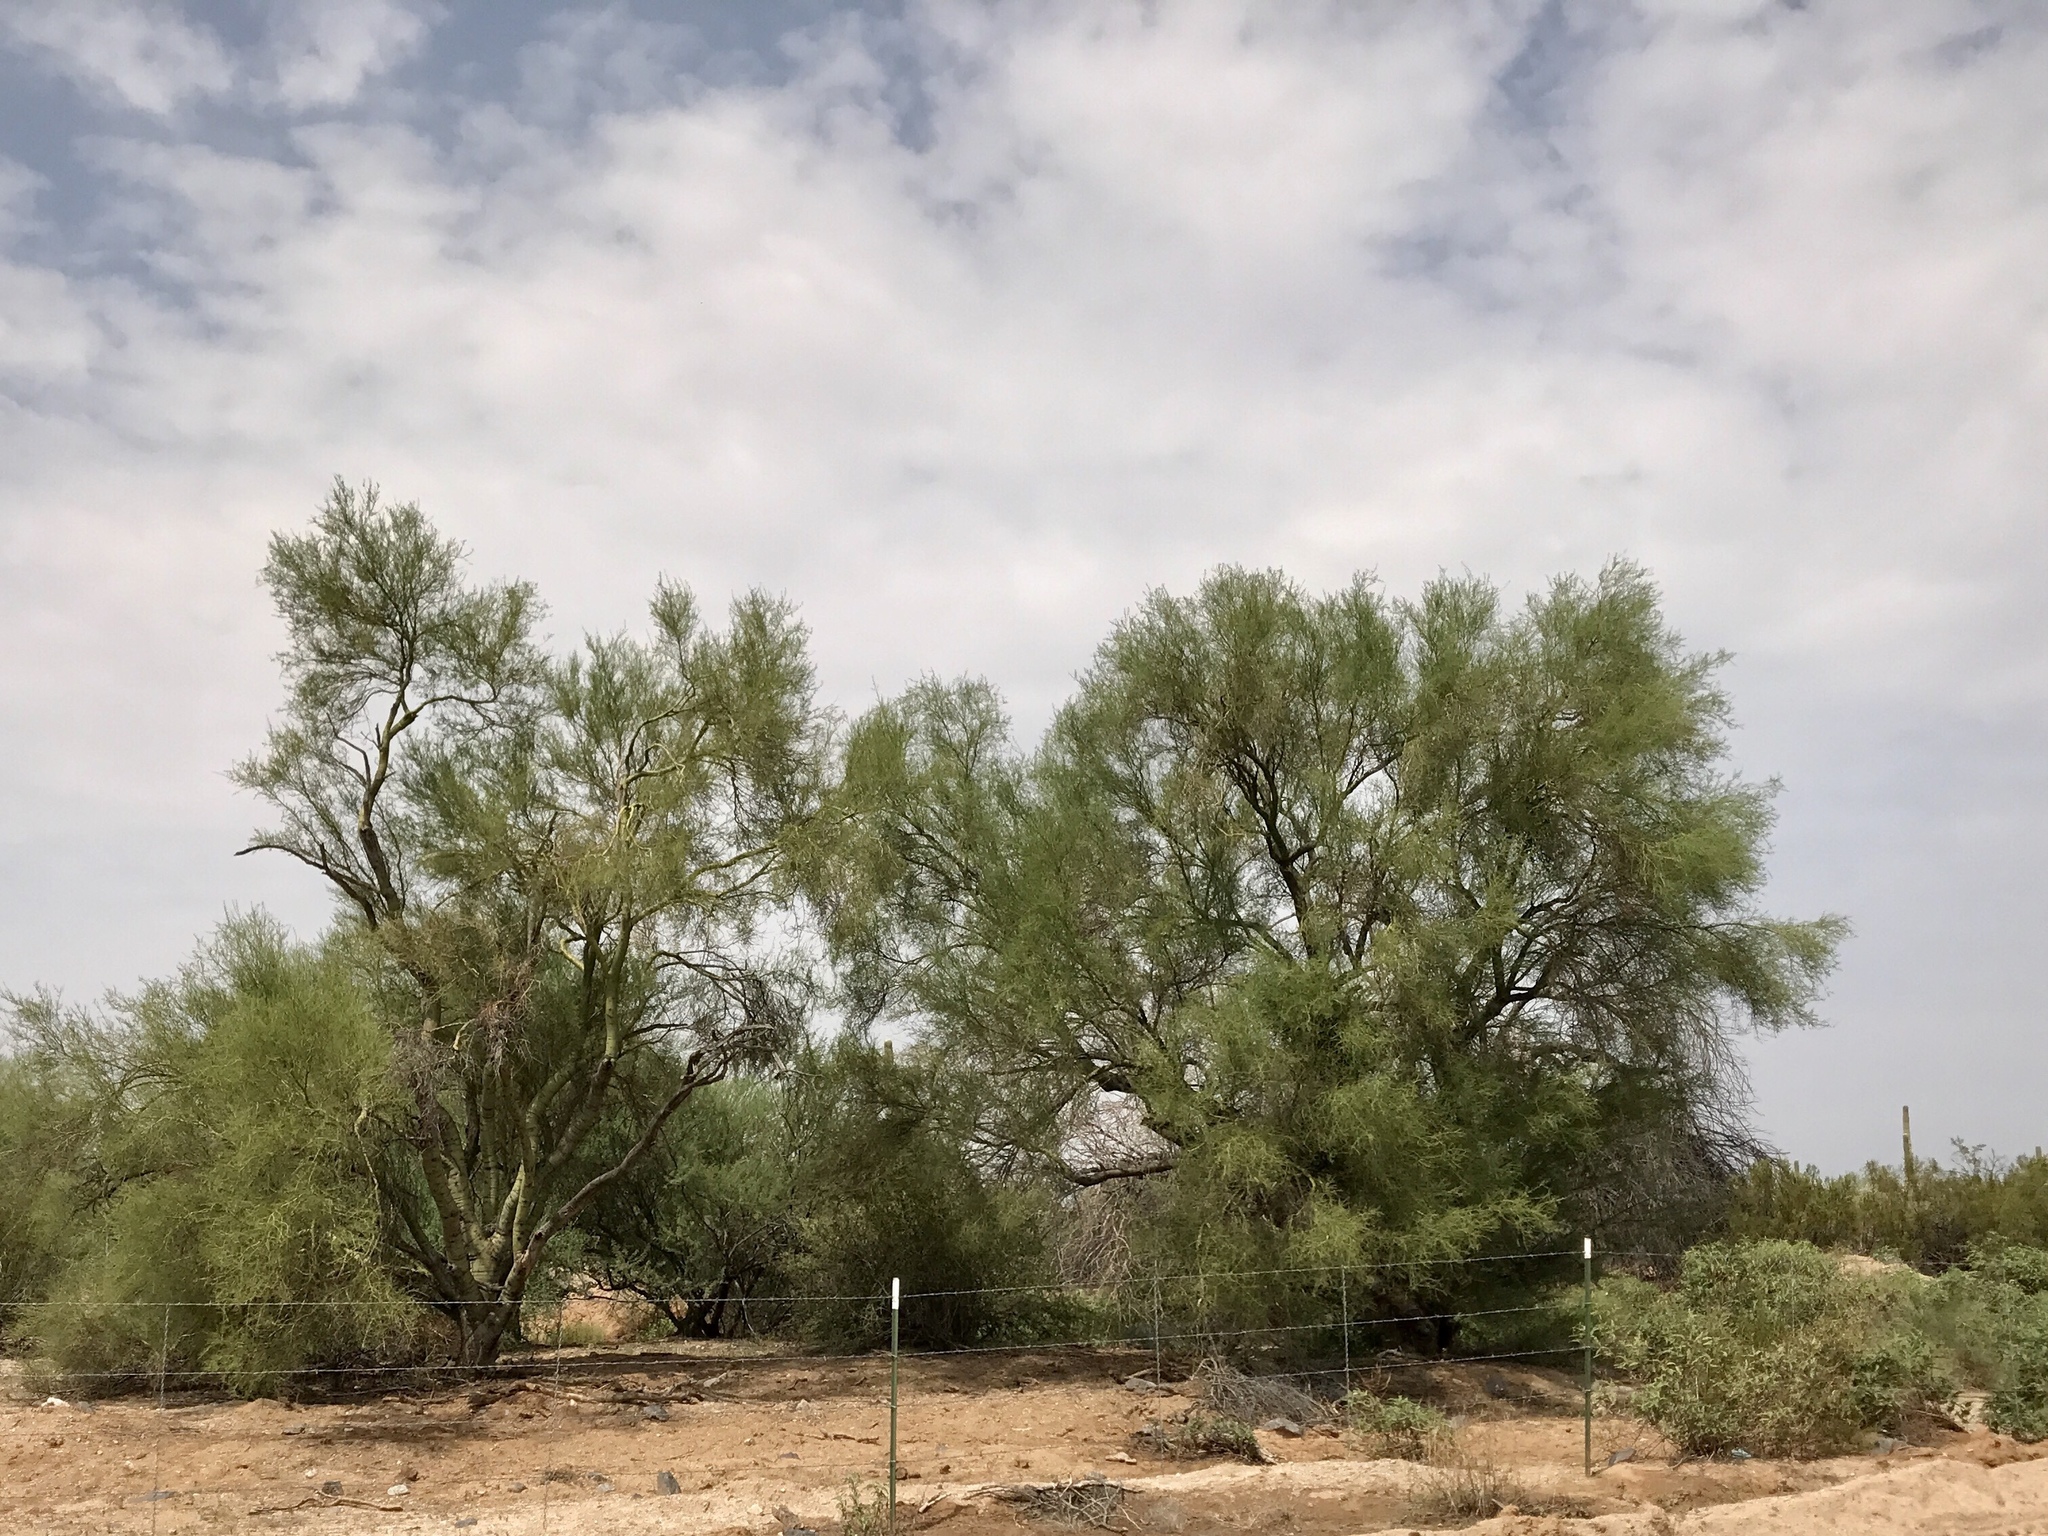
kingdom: Plantae
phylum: Tracheophyta
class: Magnoliopsida
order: Fabales
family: Fabaceae
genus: Parkinsonia
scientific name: Parkinsonia microphylla
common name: Yellow paloverde
